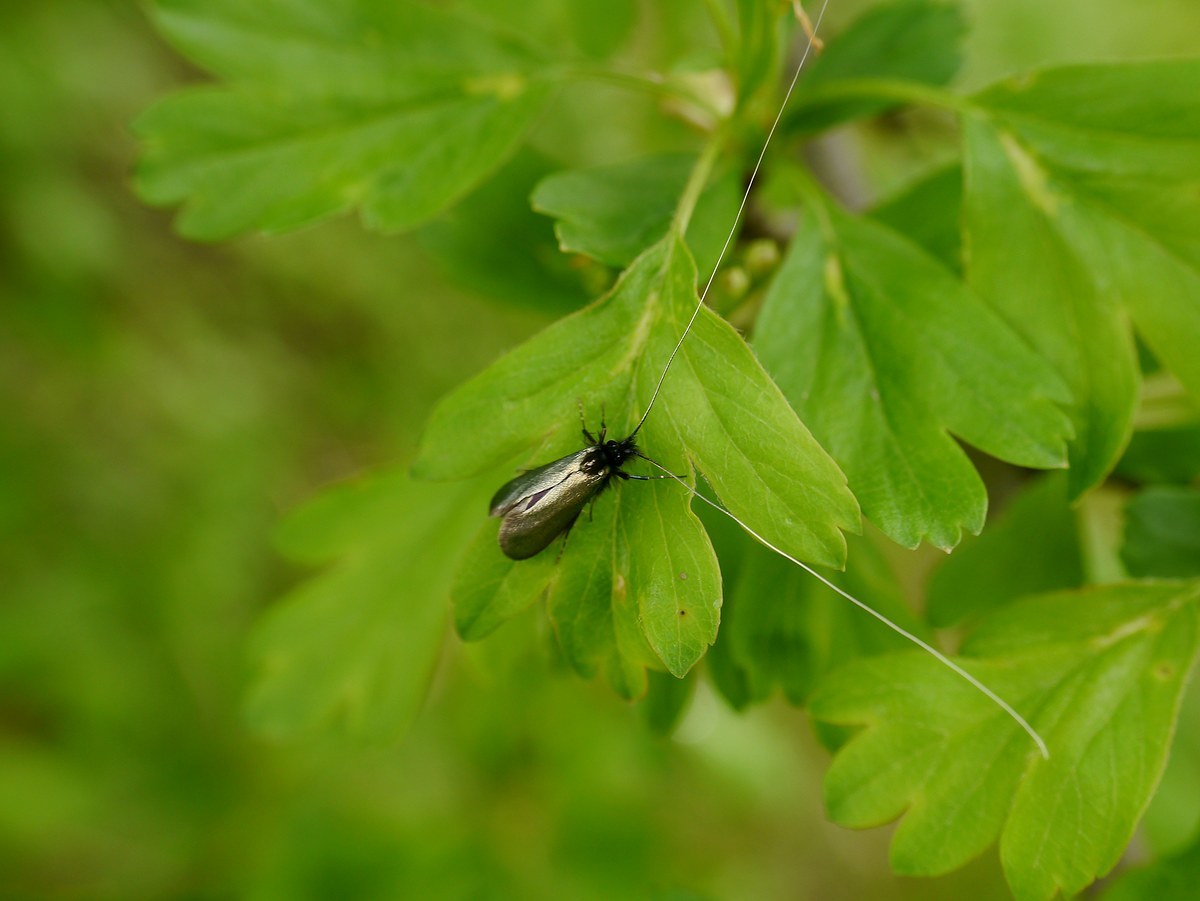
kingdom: Animalia
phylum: Arthropoda
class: Insecta
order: Lepidoptera
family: Adelidae
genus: Adela
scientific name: Adela viridella
